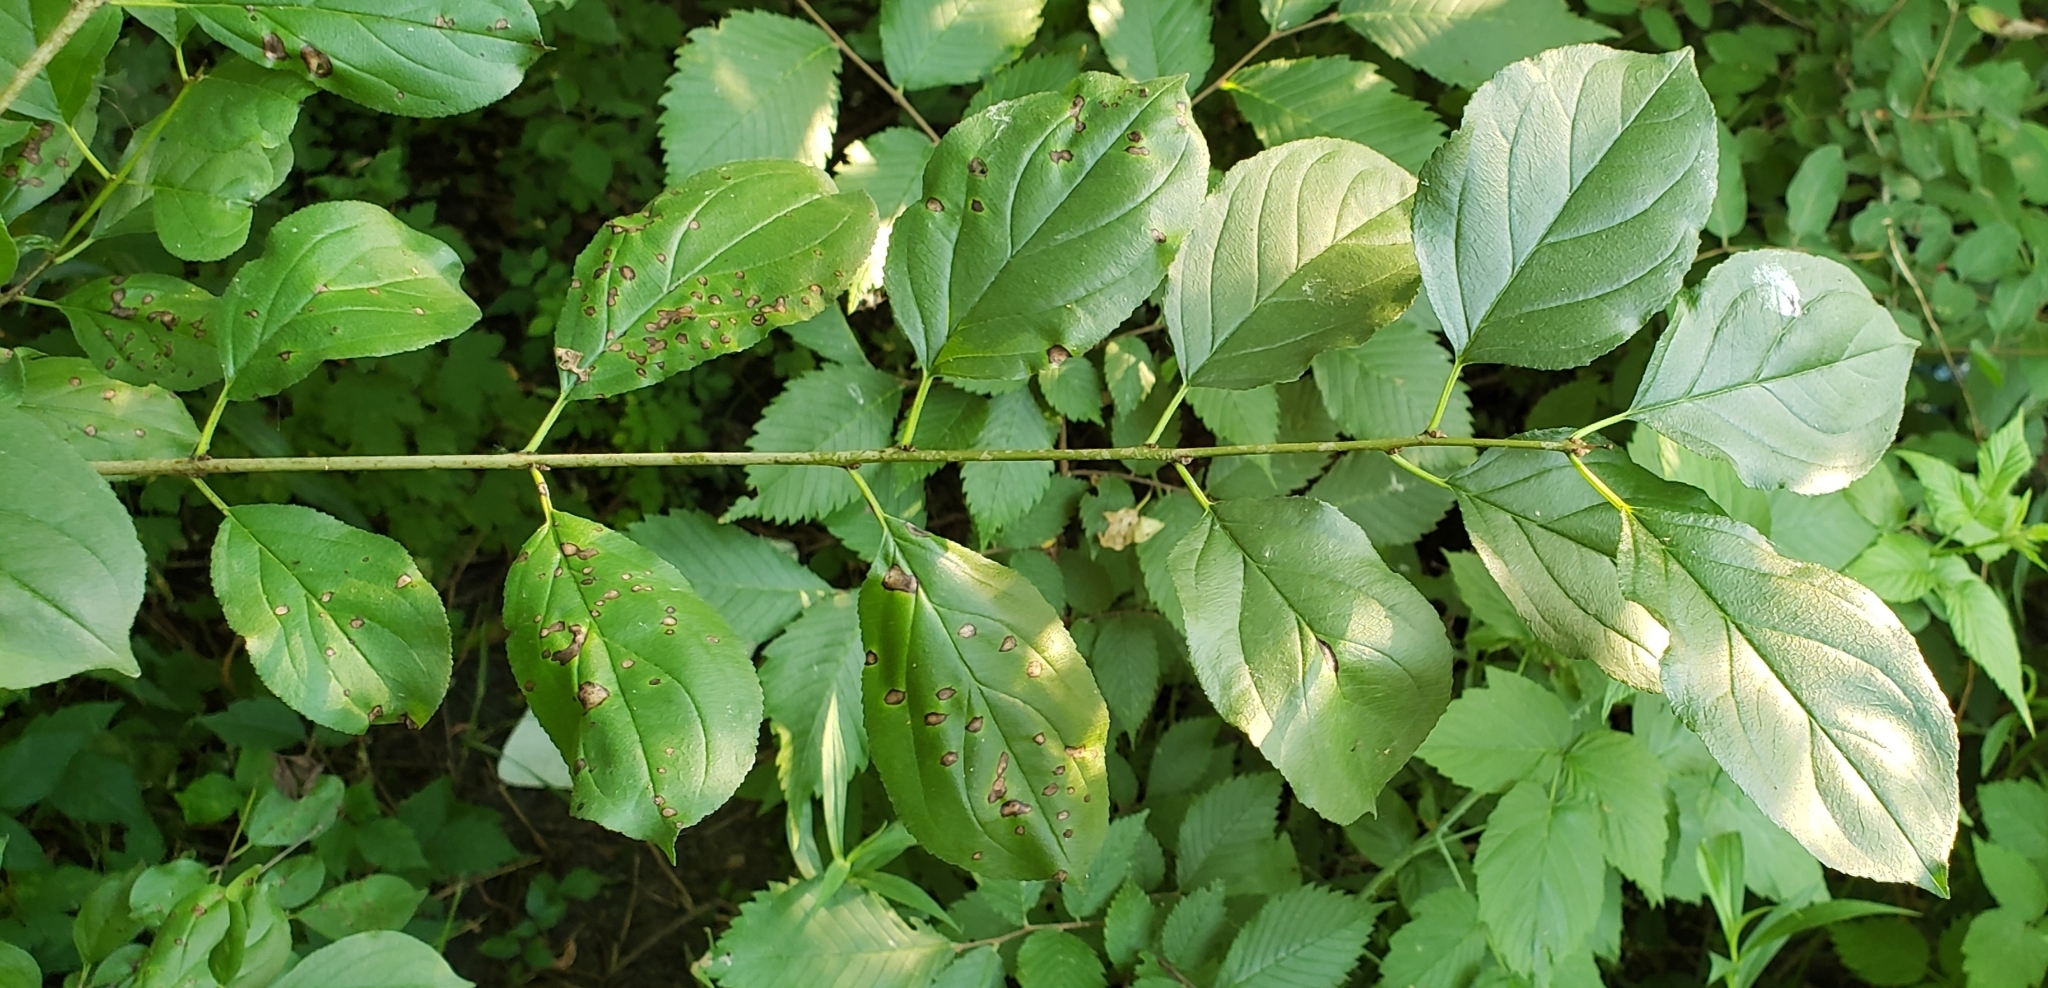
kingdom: Plantae
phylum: Tracheophyta
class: Magnoliopsida
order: Rosales
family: Rhamnaceae
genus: Rhamnus
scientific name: Rhamnus cathartica
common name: Common buckthorn
